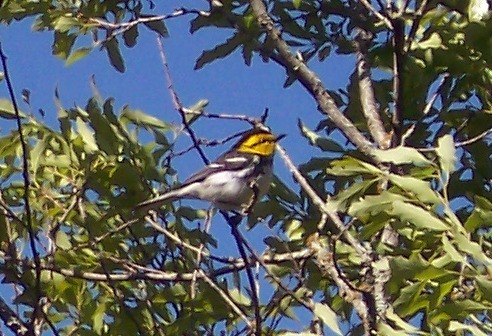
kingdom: Animalia
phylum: Chordata
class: Aves
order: Passeriformes
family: Parulidae
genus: Setophaga
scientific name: Setophaga chrysoparia
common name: Golden-cheeked warbler
